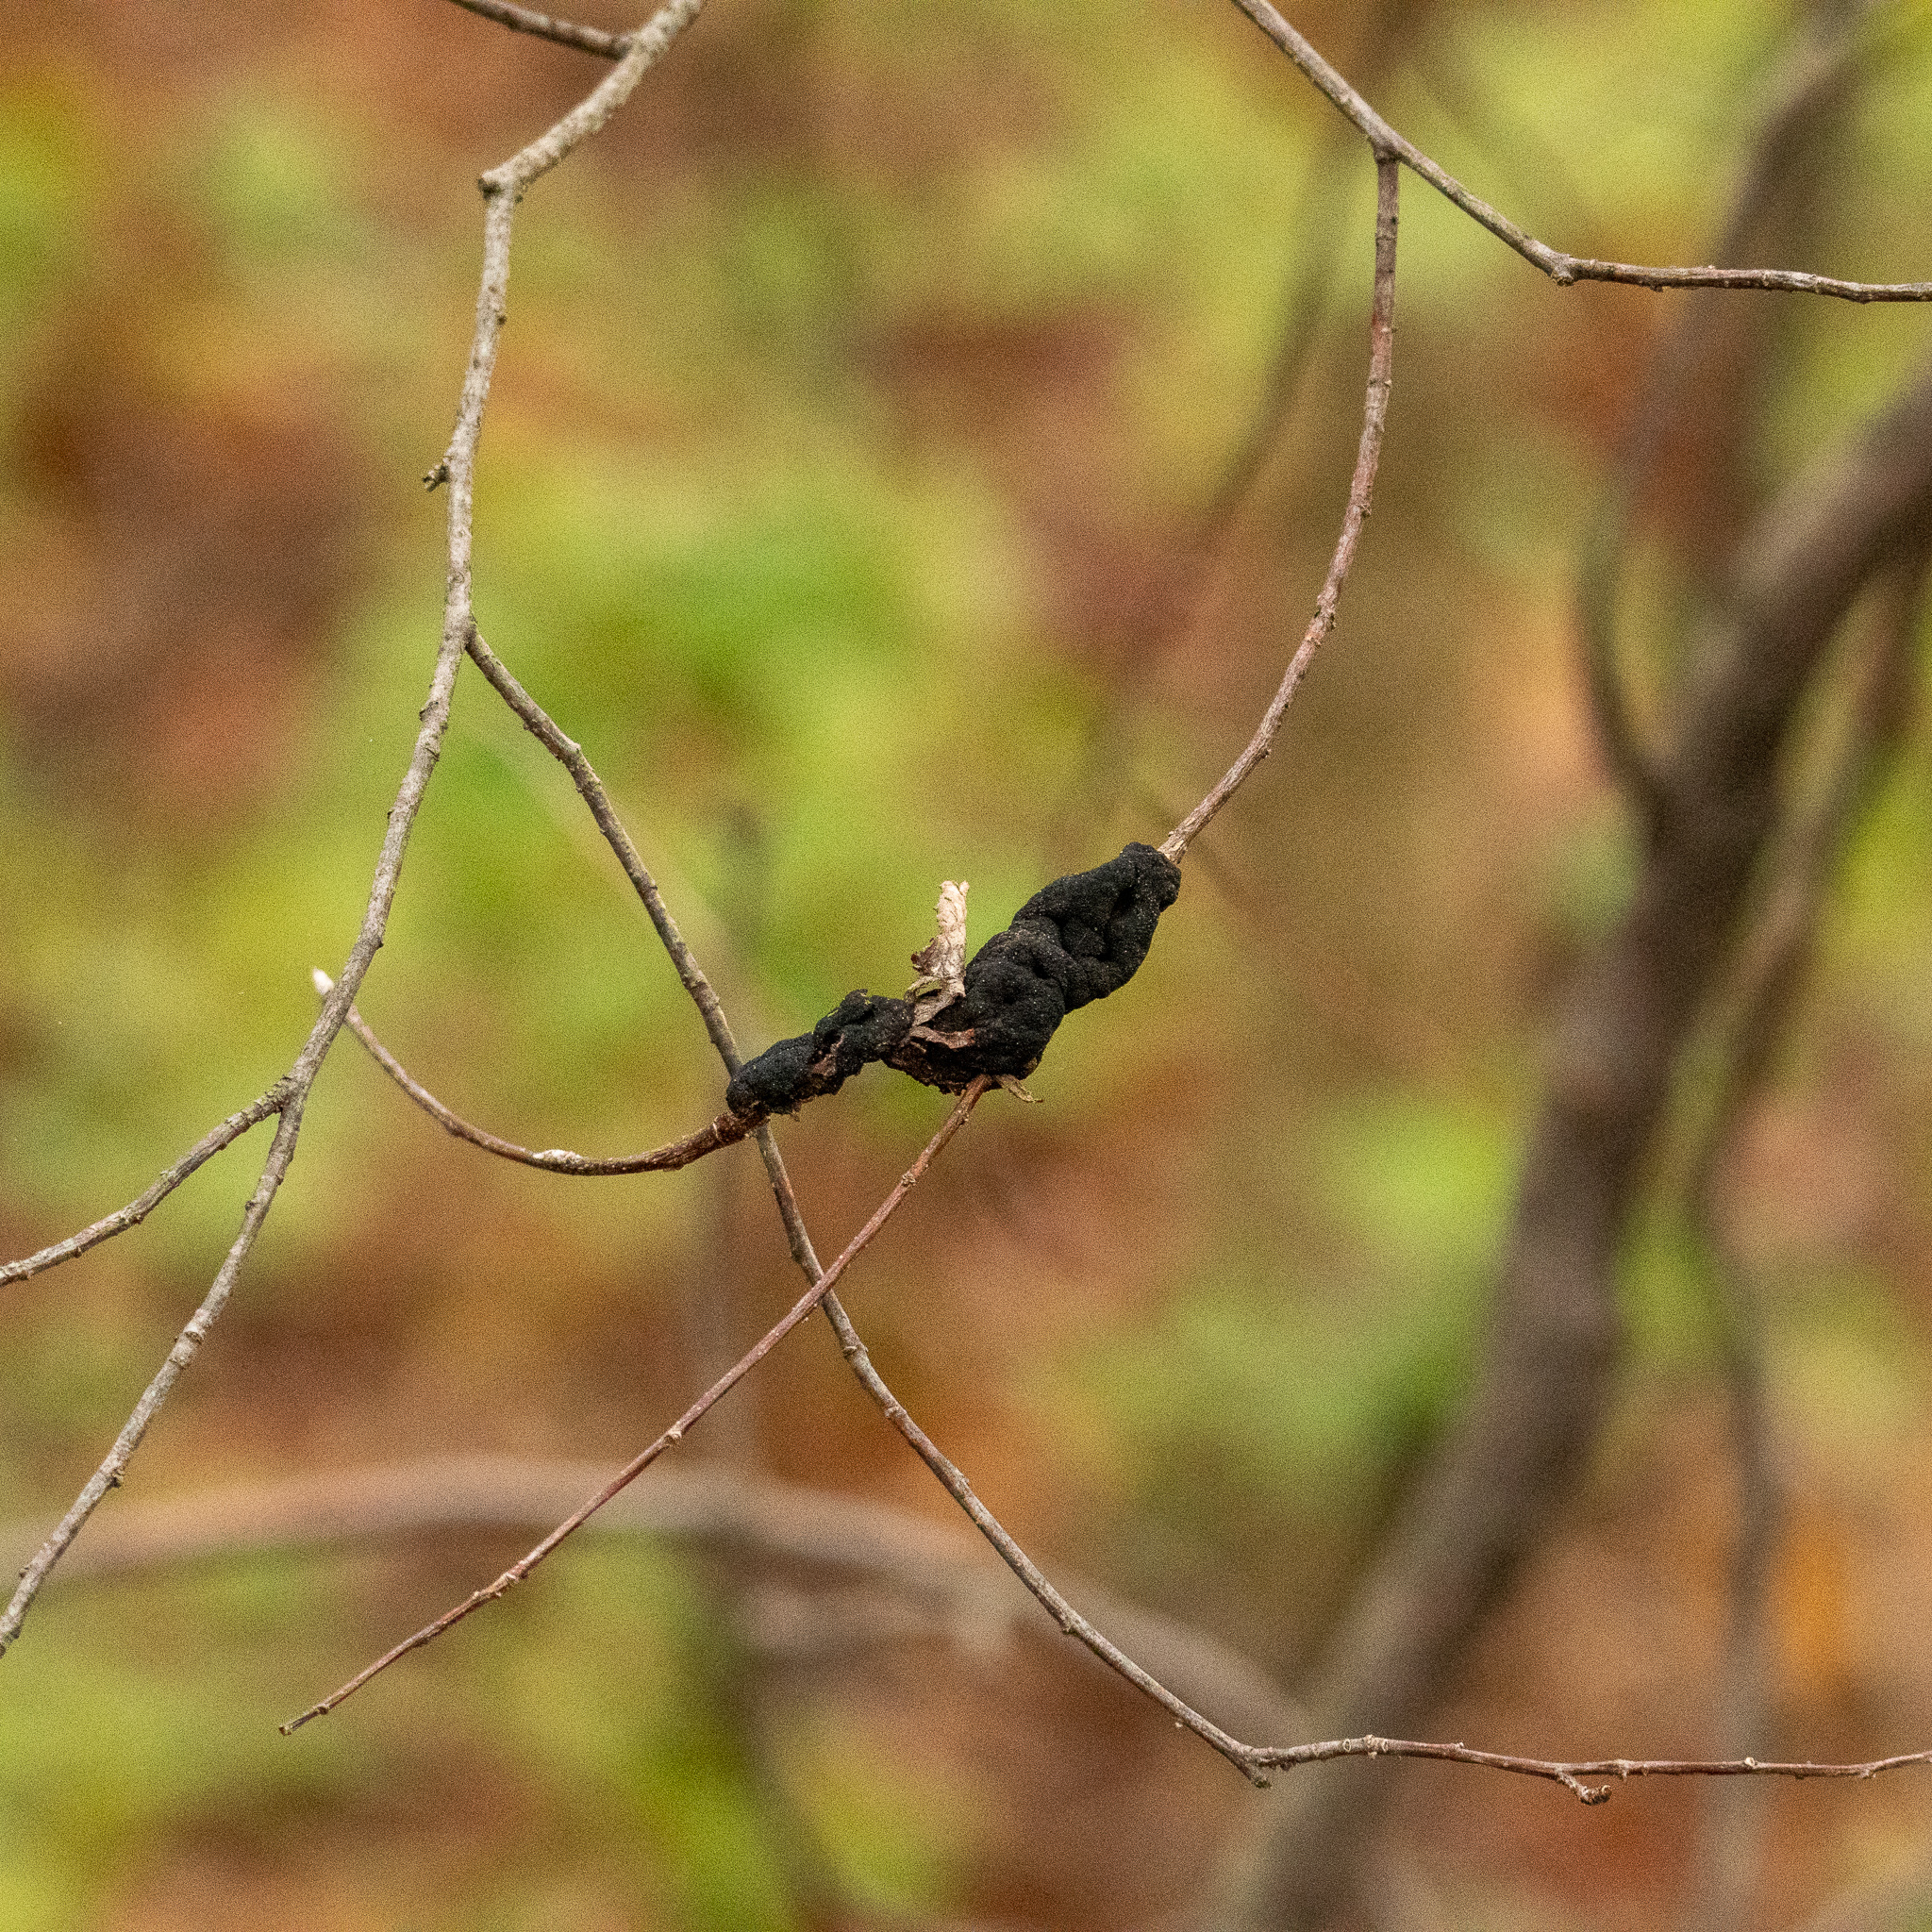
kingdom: Fungi
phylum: Ascomycota
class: Dothideomycetes
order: Venturiales
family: Venturiaceae
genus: Apiosporina
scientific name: Apiosporina morbosa
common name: Black knot
